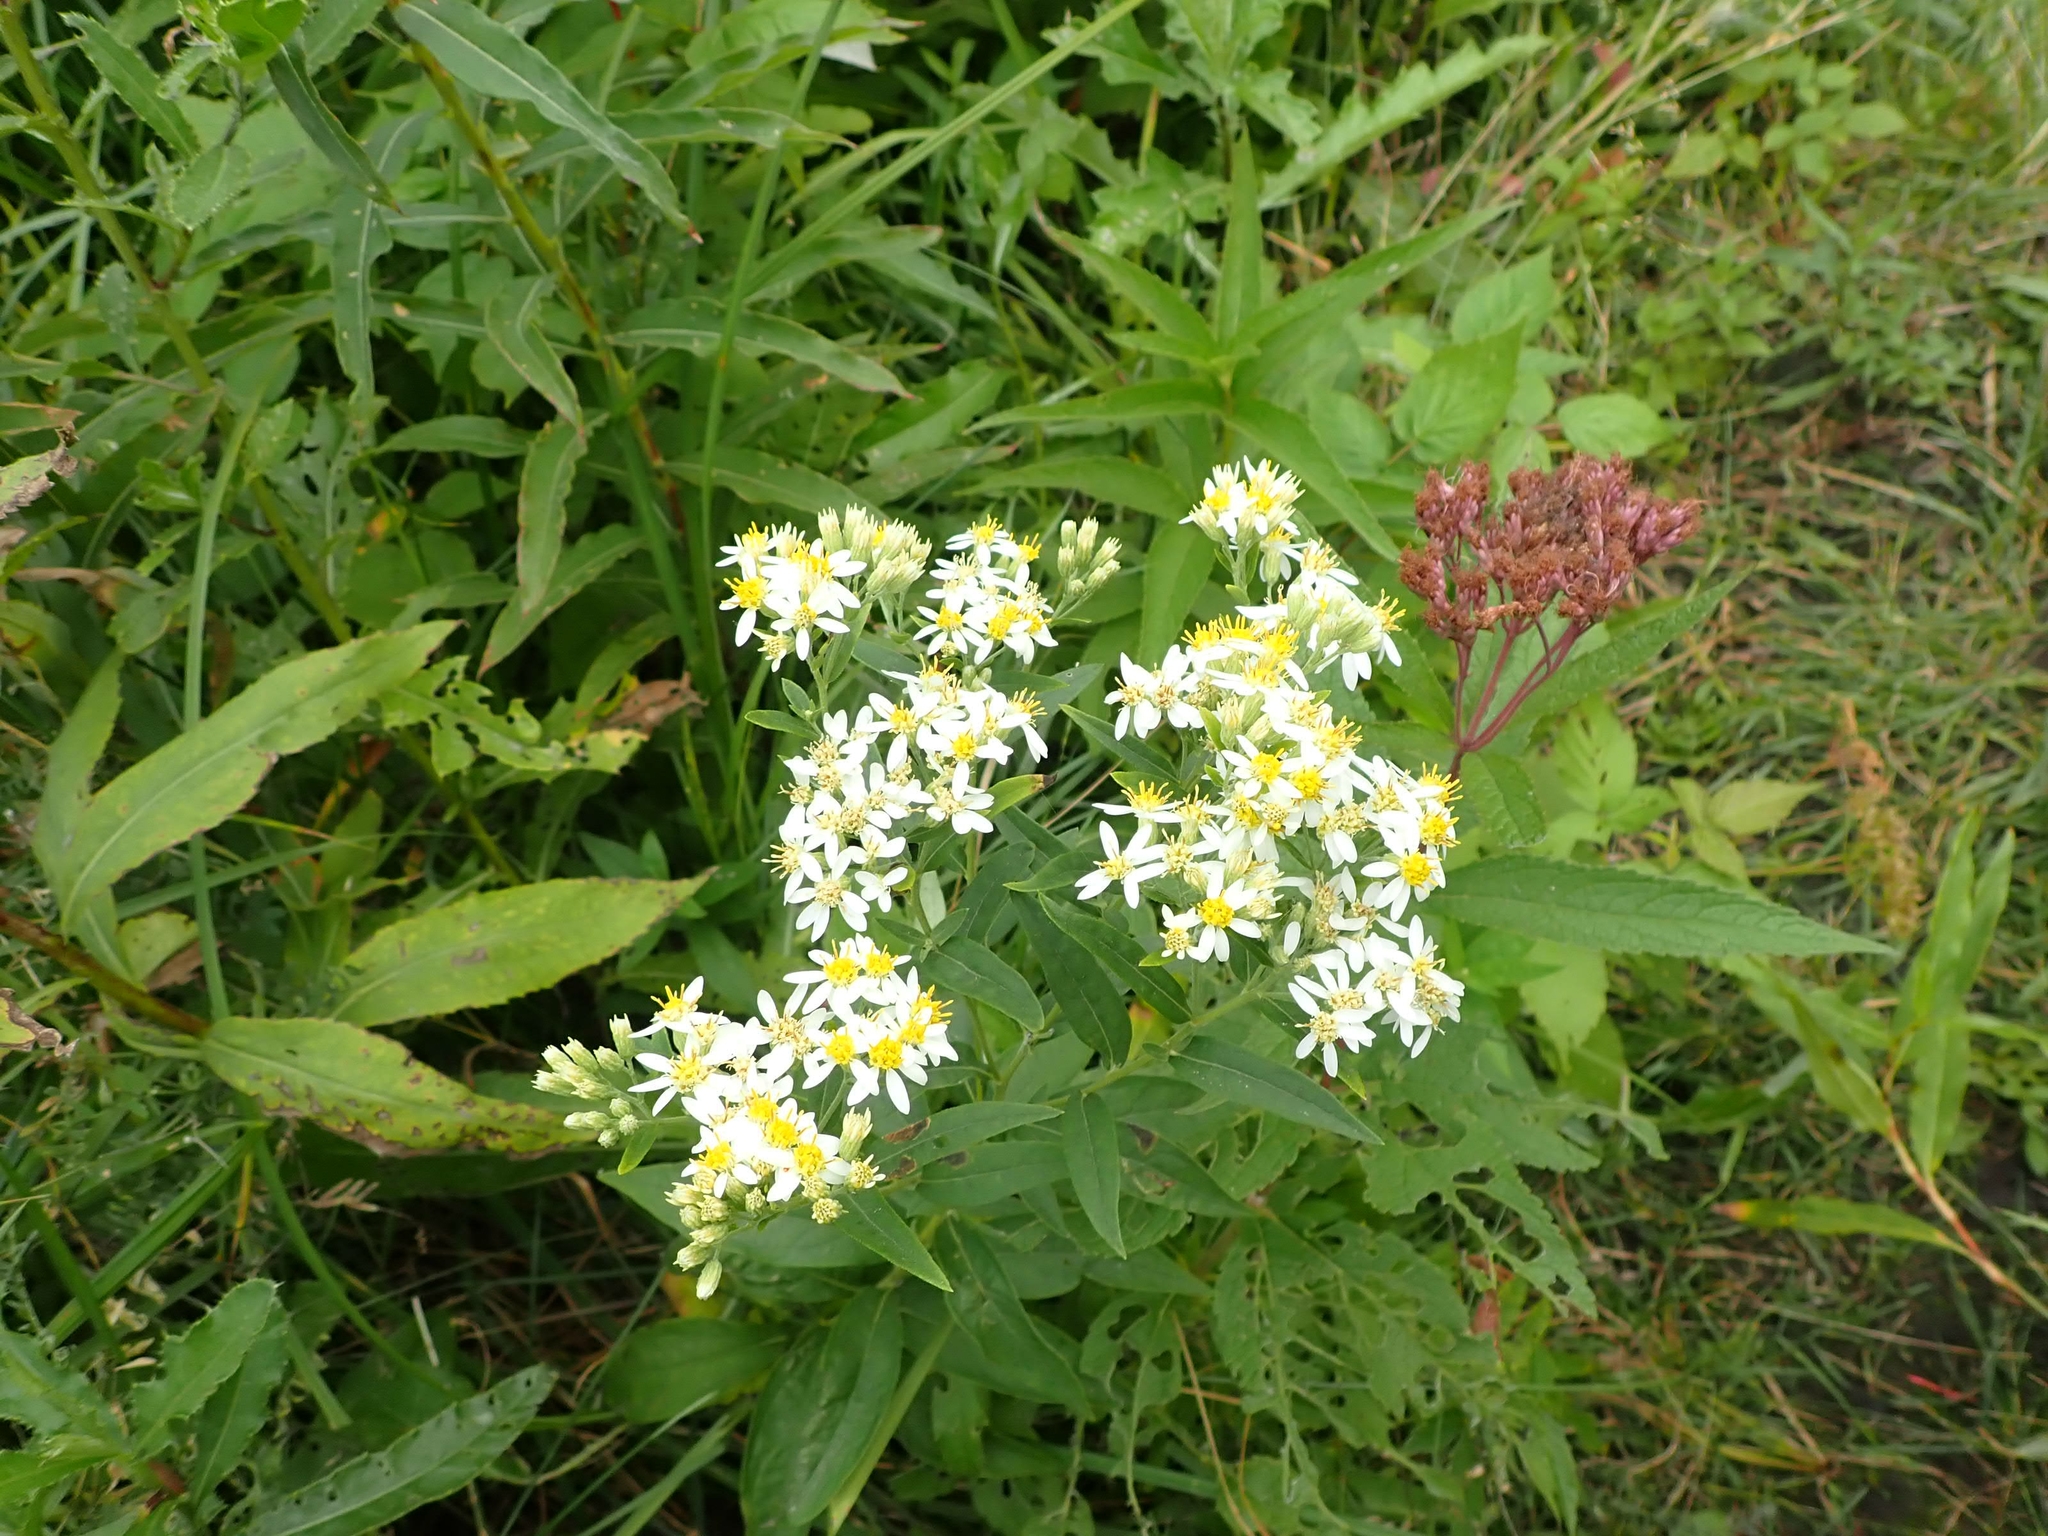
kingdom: Plantae
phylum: Tracheophyta
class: Magnoliopsida
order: Asterales
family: Asteraceae
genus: Doellingeria
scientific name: Doellingeria umbellata
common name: Flat-top white aster
